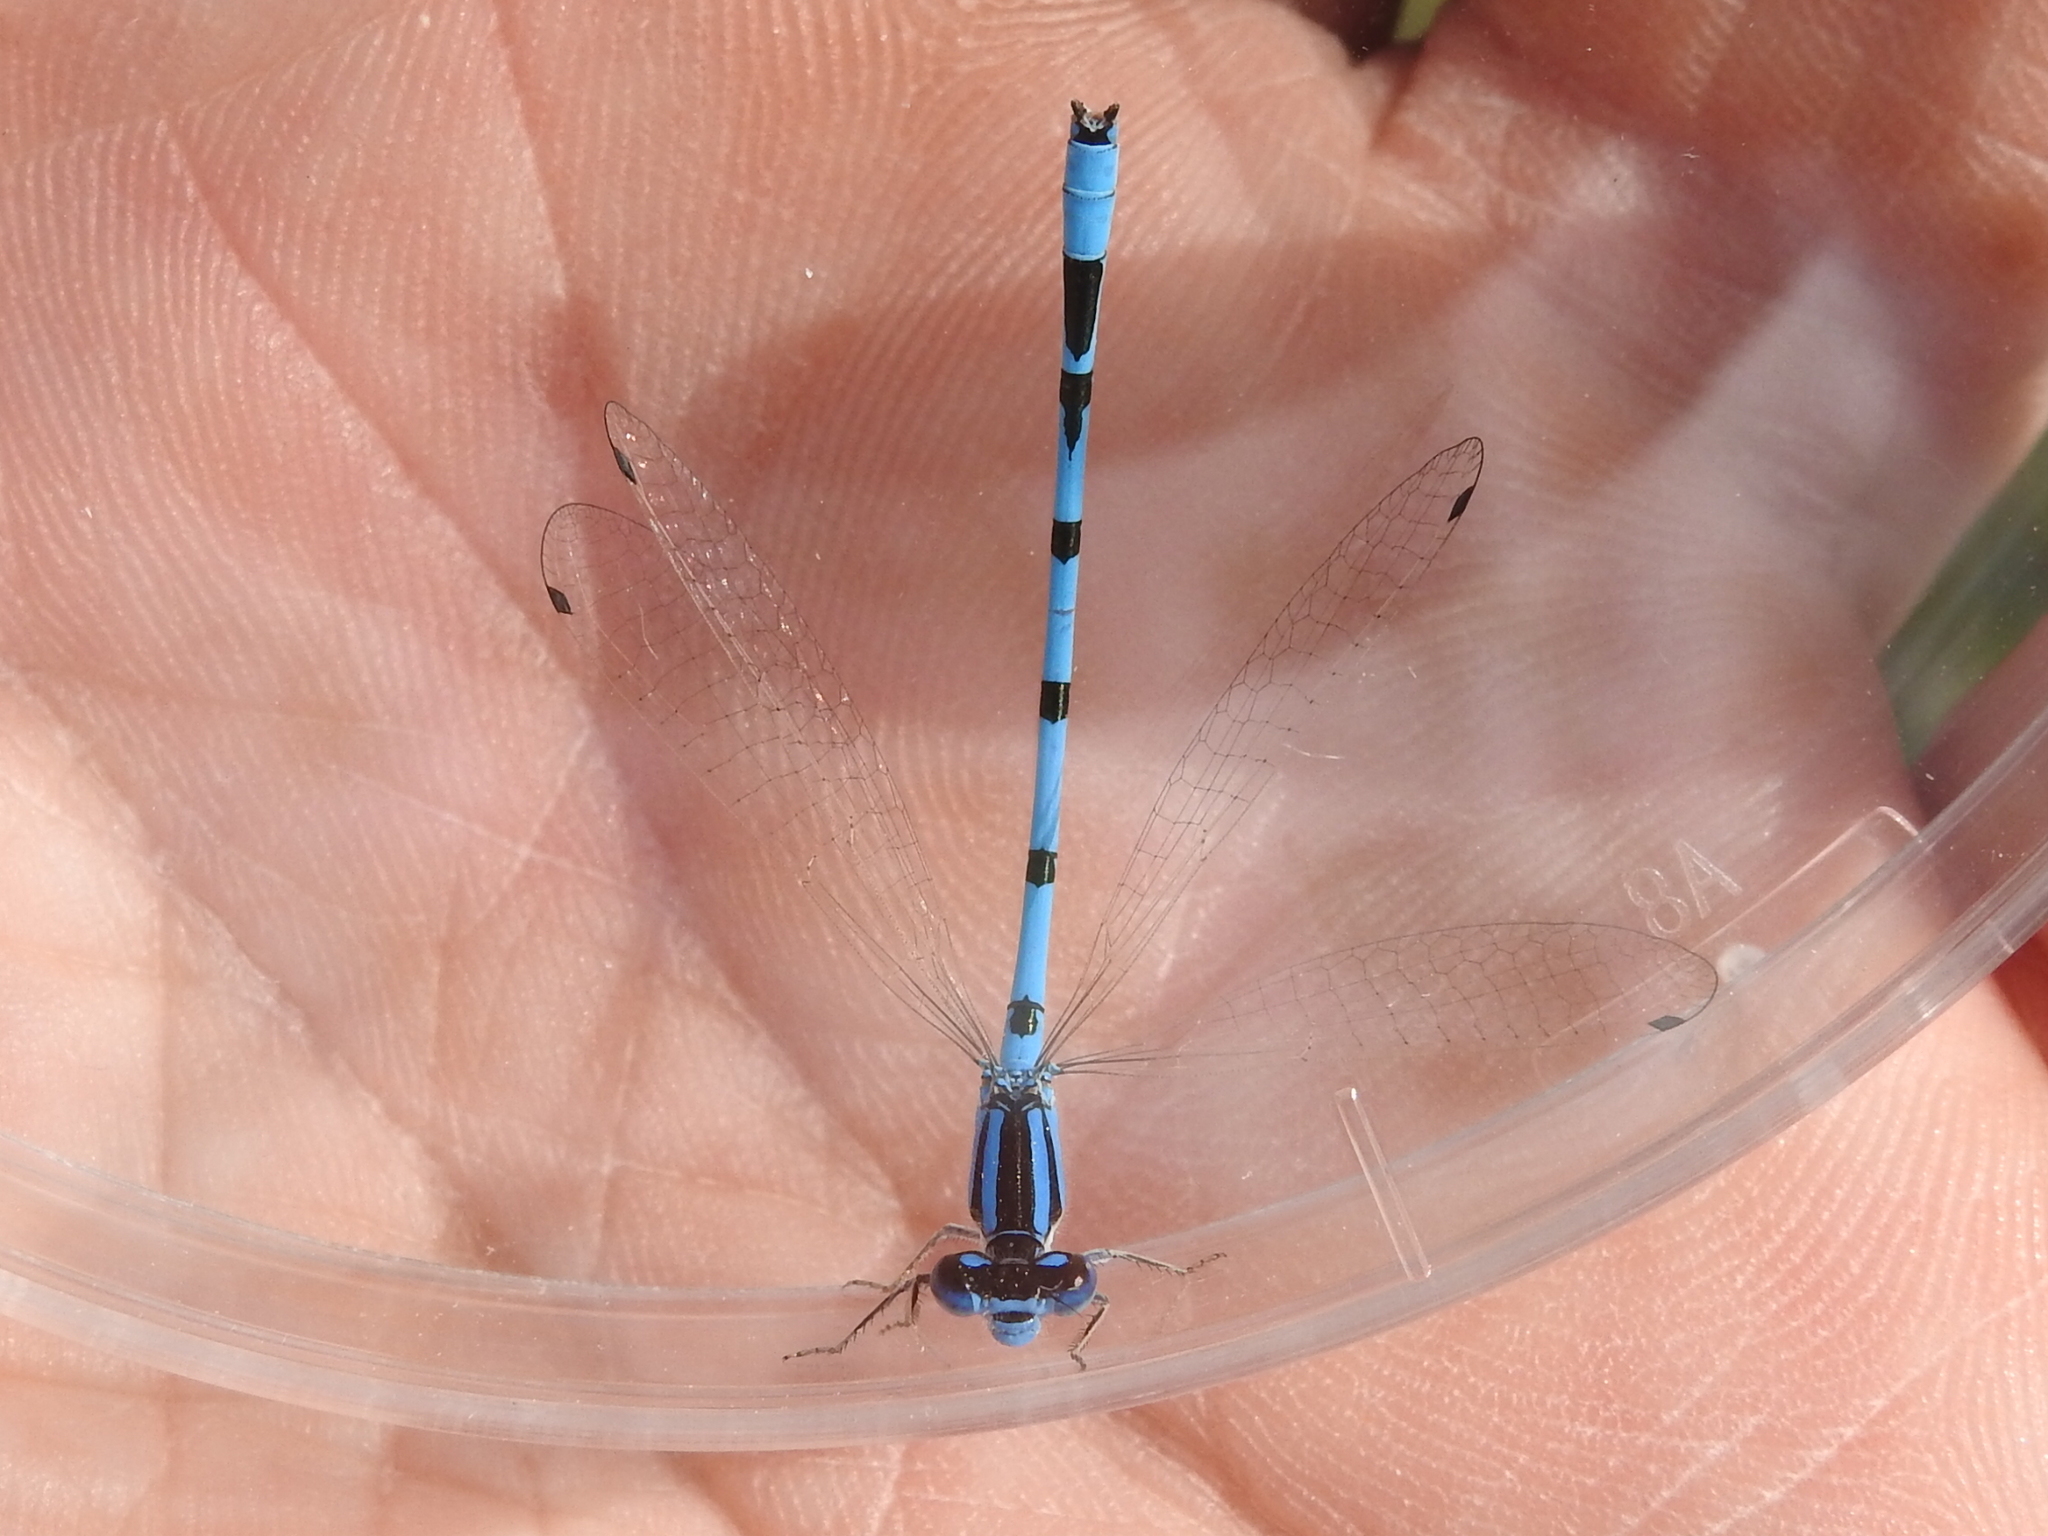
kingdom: Animalia
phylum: Arthropoda
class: Insecta
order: Odonata
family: Coenagrionidae
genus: Enallagma
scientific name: Enallagma civile
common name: Damselfly
